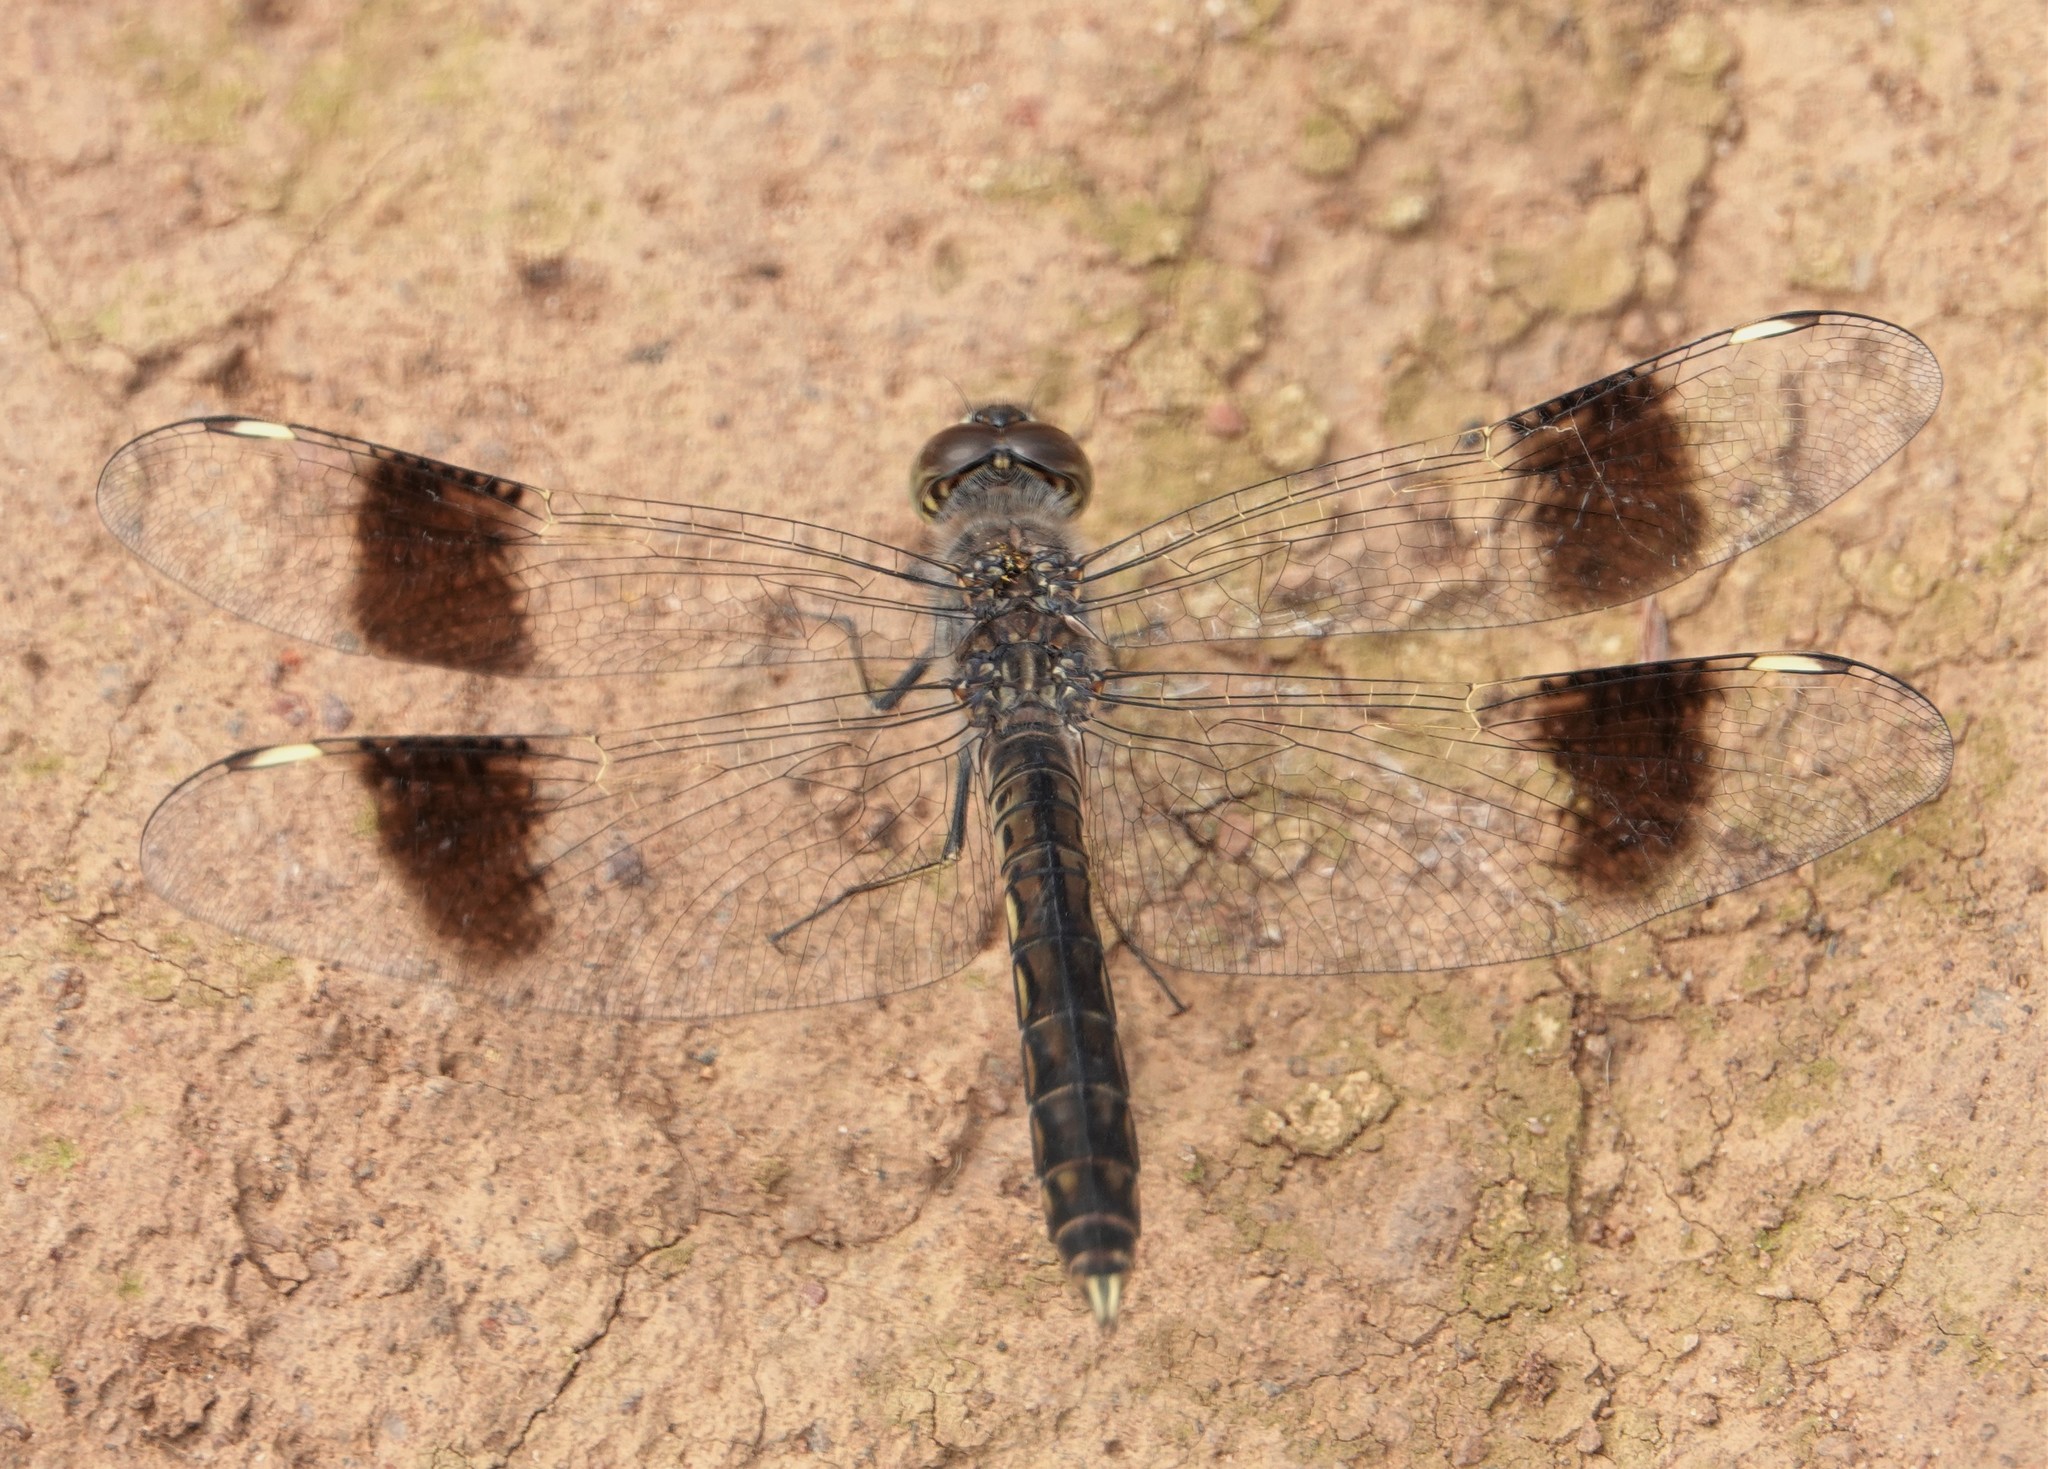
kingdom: Animalia
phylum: Arthropoda
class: Insecta
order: Odonata
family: Libellulidae
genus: Brachythemis
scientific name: Brachythemis impartita
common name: Banded groundling
